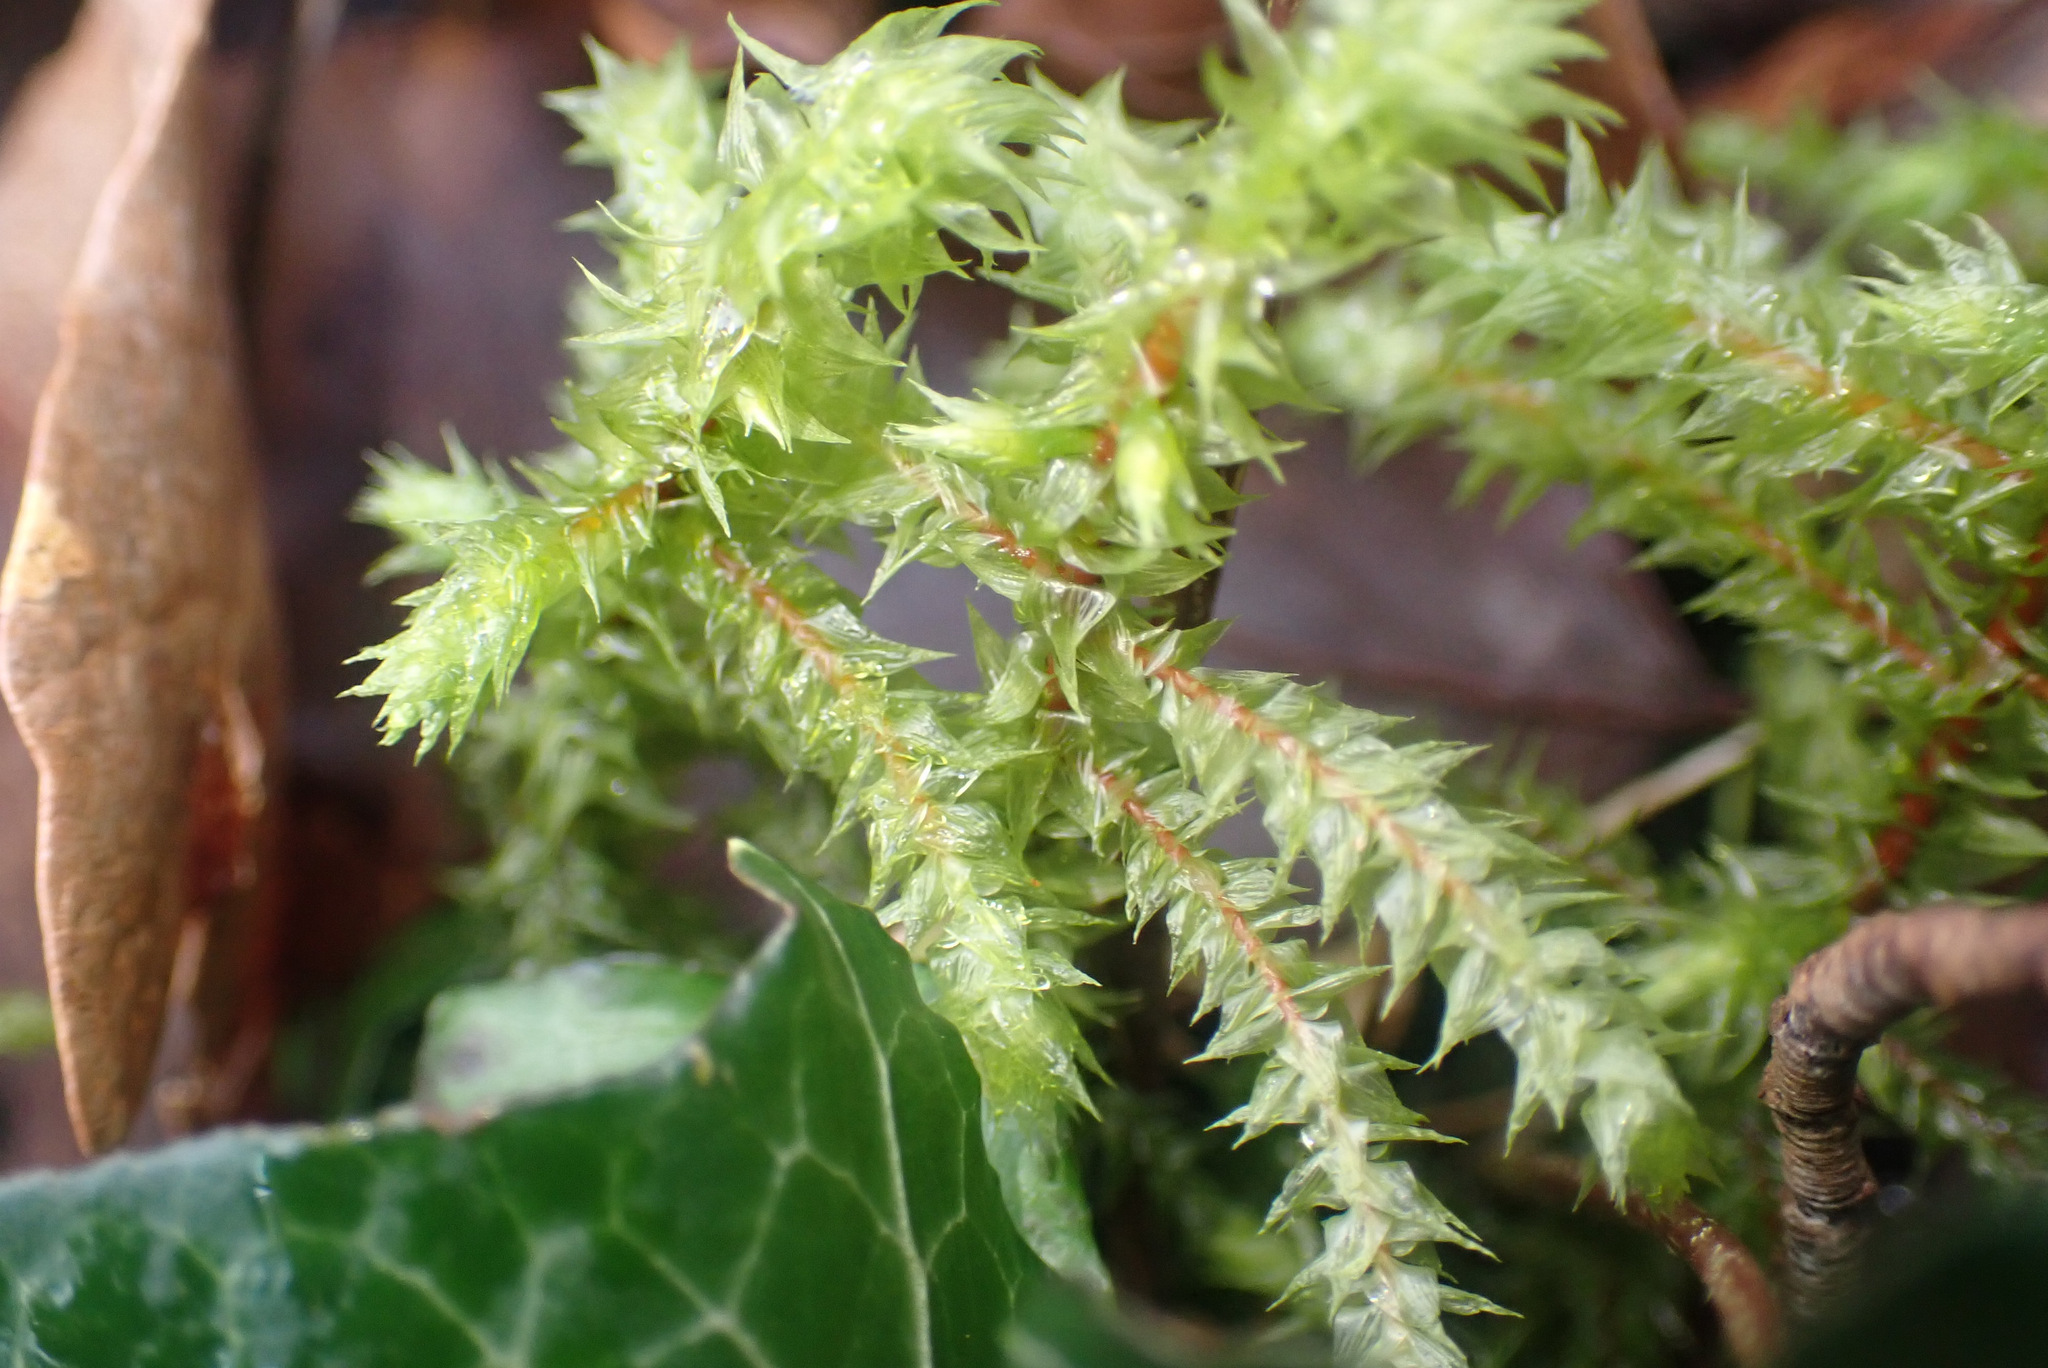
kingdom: Plantae
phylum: Bryophyta
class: Bryopsida
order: Hypnales
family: Hylocomiaceae
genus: Hylocomiadelphus
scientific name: Hylocomiadelphus triquetrus
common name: Rough goose neck moss
